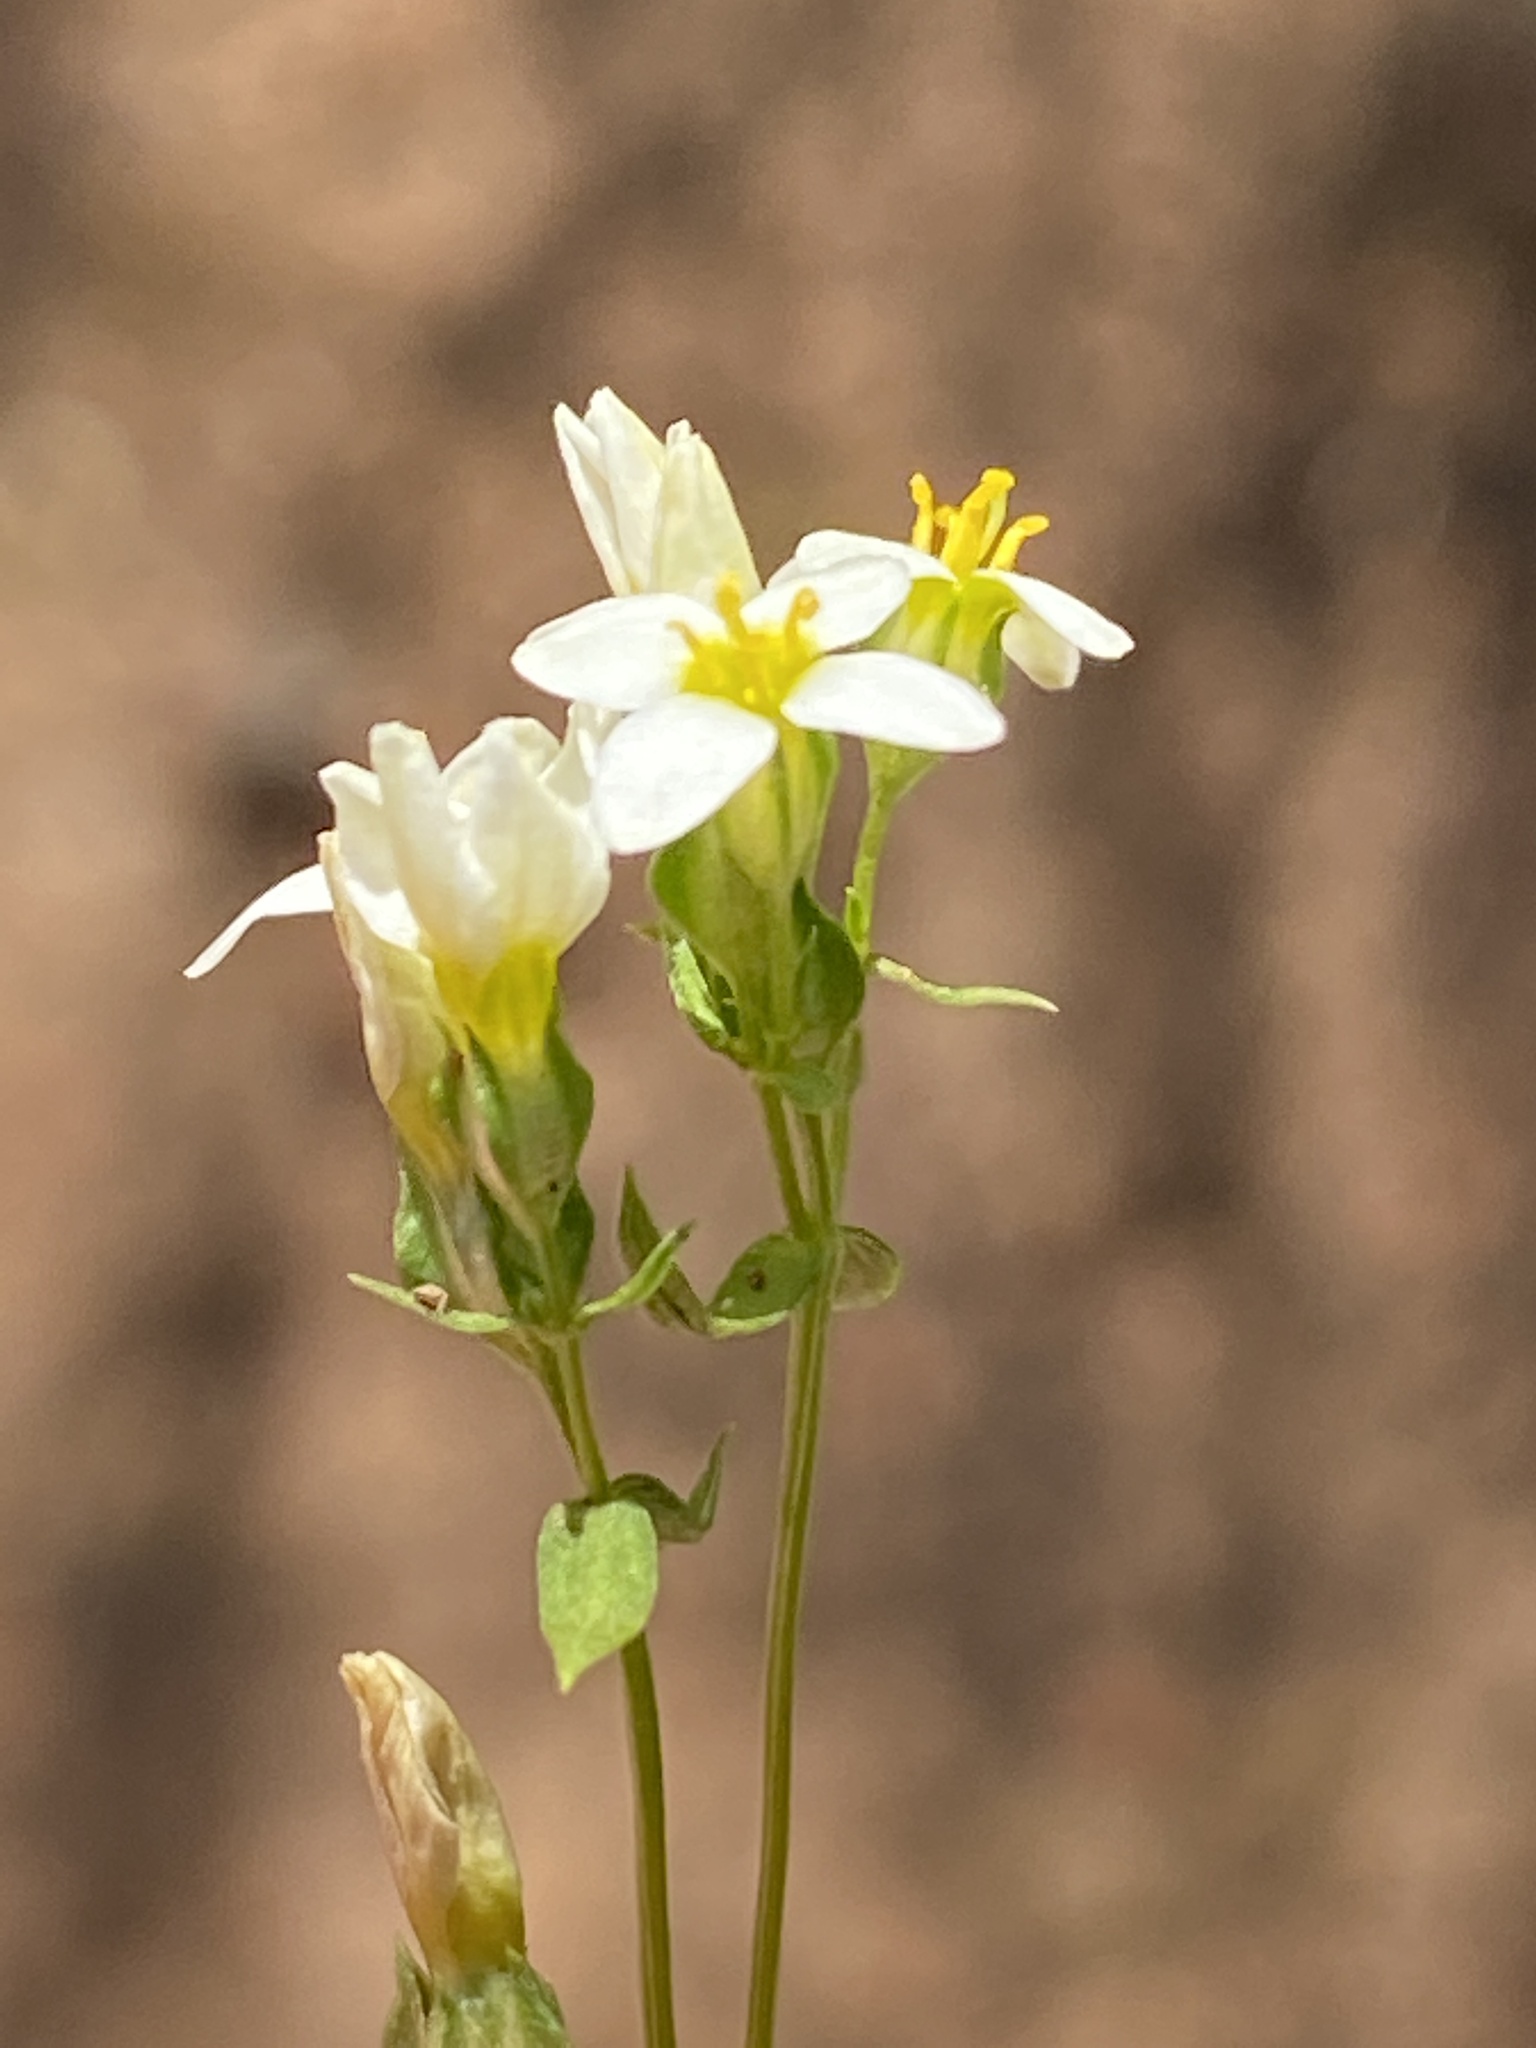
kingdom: Plantae
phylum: Tracheophyta
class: Magnoliopsida
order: Gentianales
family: Gentianaceae
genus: Sebaea
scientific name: Sebaea aurea
